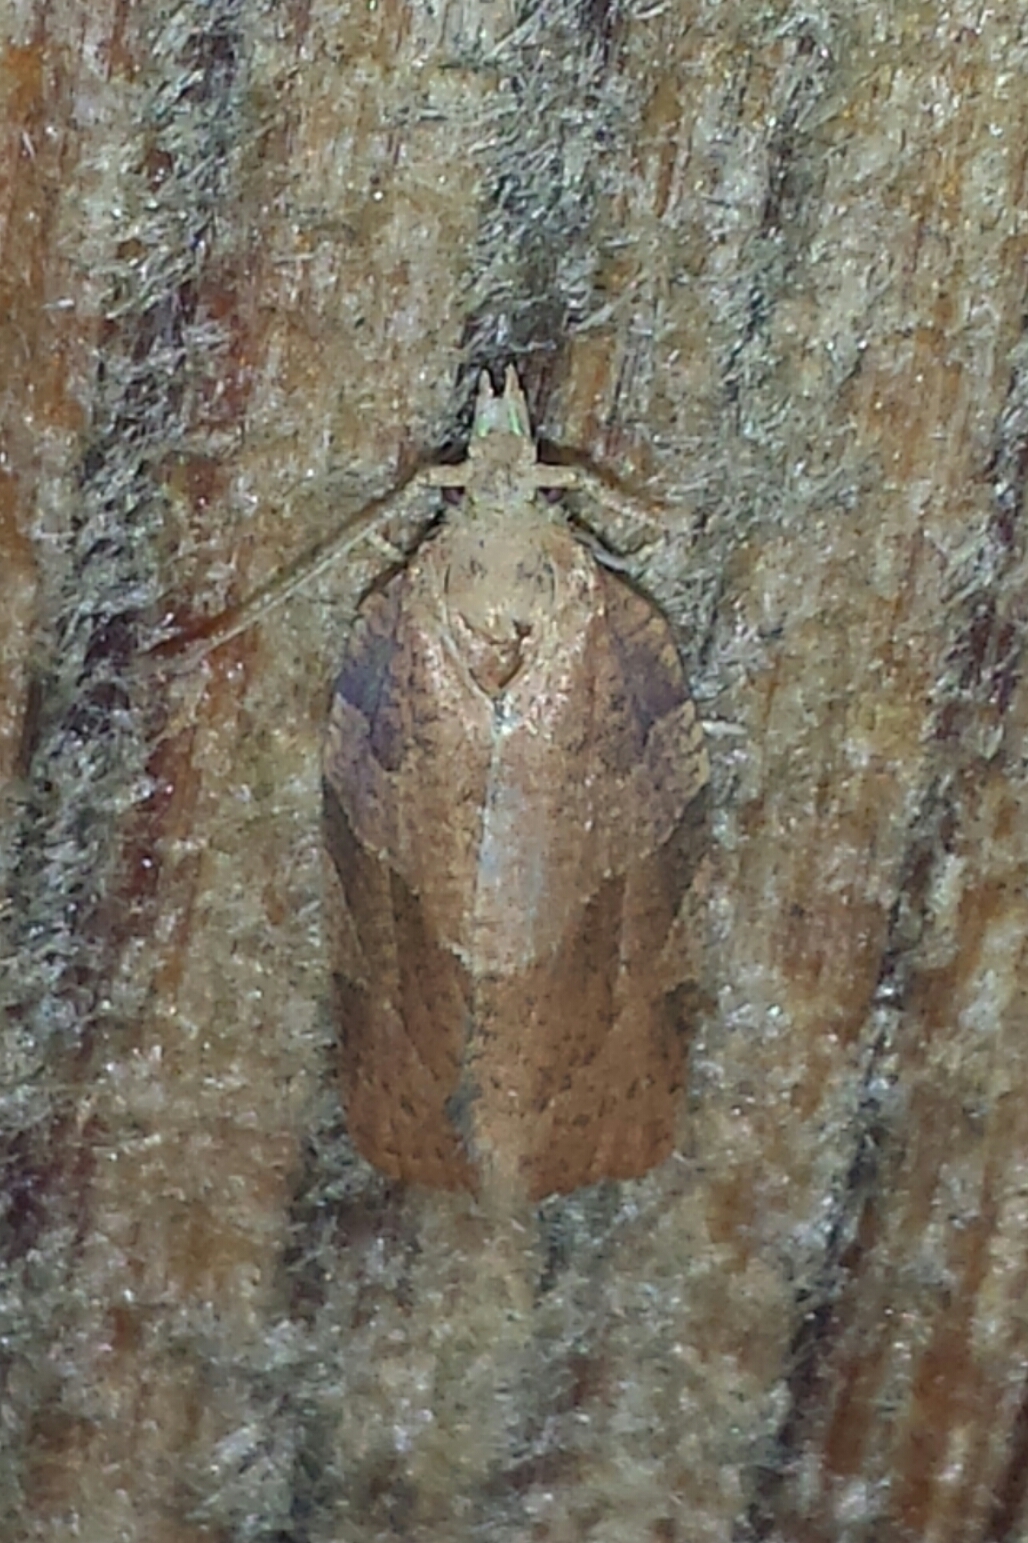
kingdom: Animalia
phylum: Arthropoda
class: Insecta
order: Lepidoptera
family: Tortricidae
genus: Pandemis
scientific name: Pandemis lamprosana
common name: Woodgrain leafroller moth
